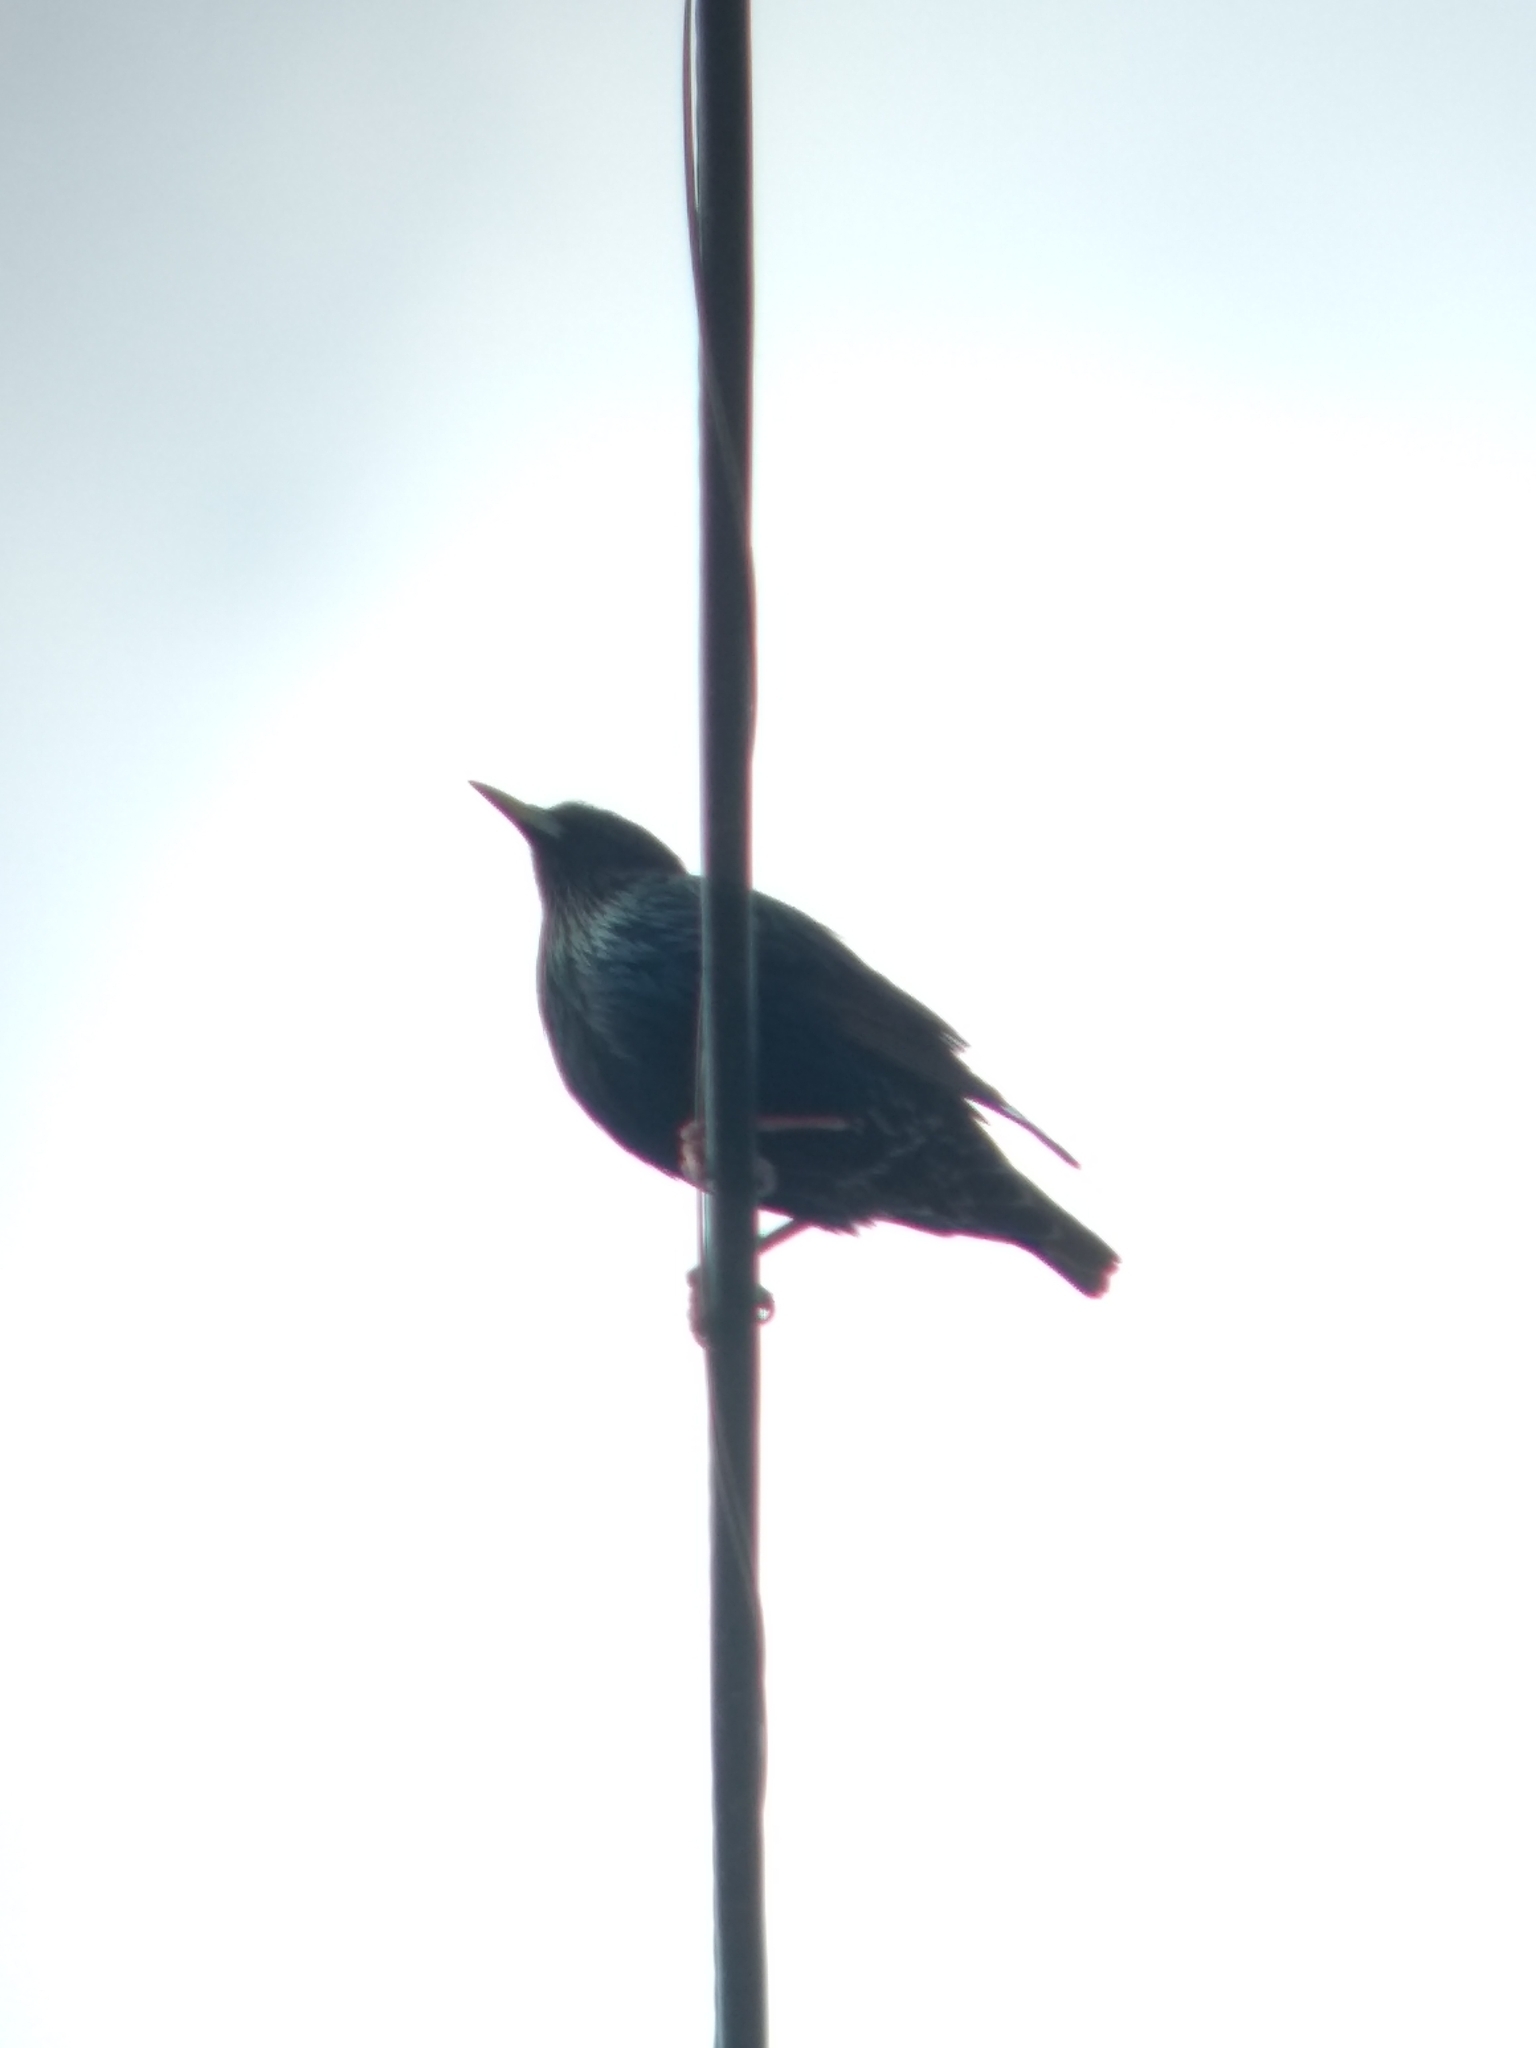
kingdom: Animalia
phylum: Chordata
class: Aves
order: Passeriformes
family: Sturnidae
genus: Sturnus
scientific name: Sturnus vulgaris
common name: Common starling
